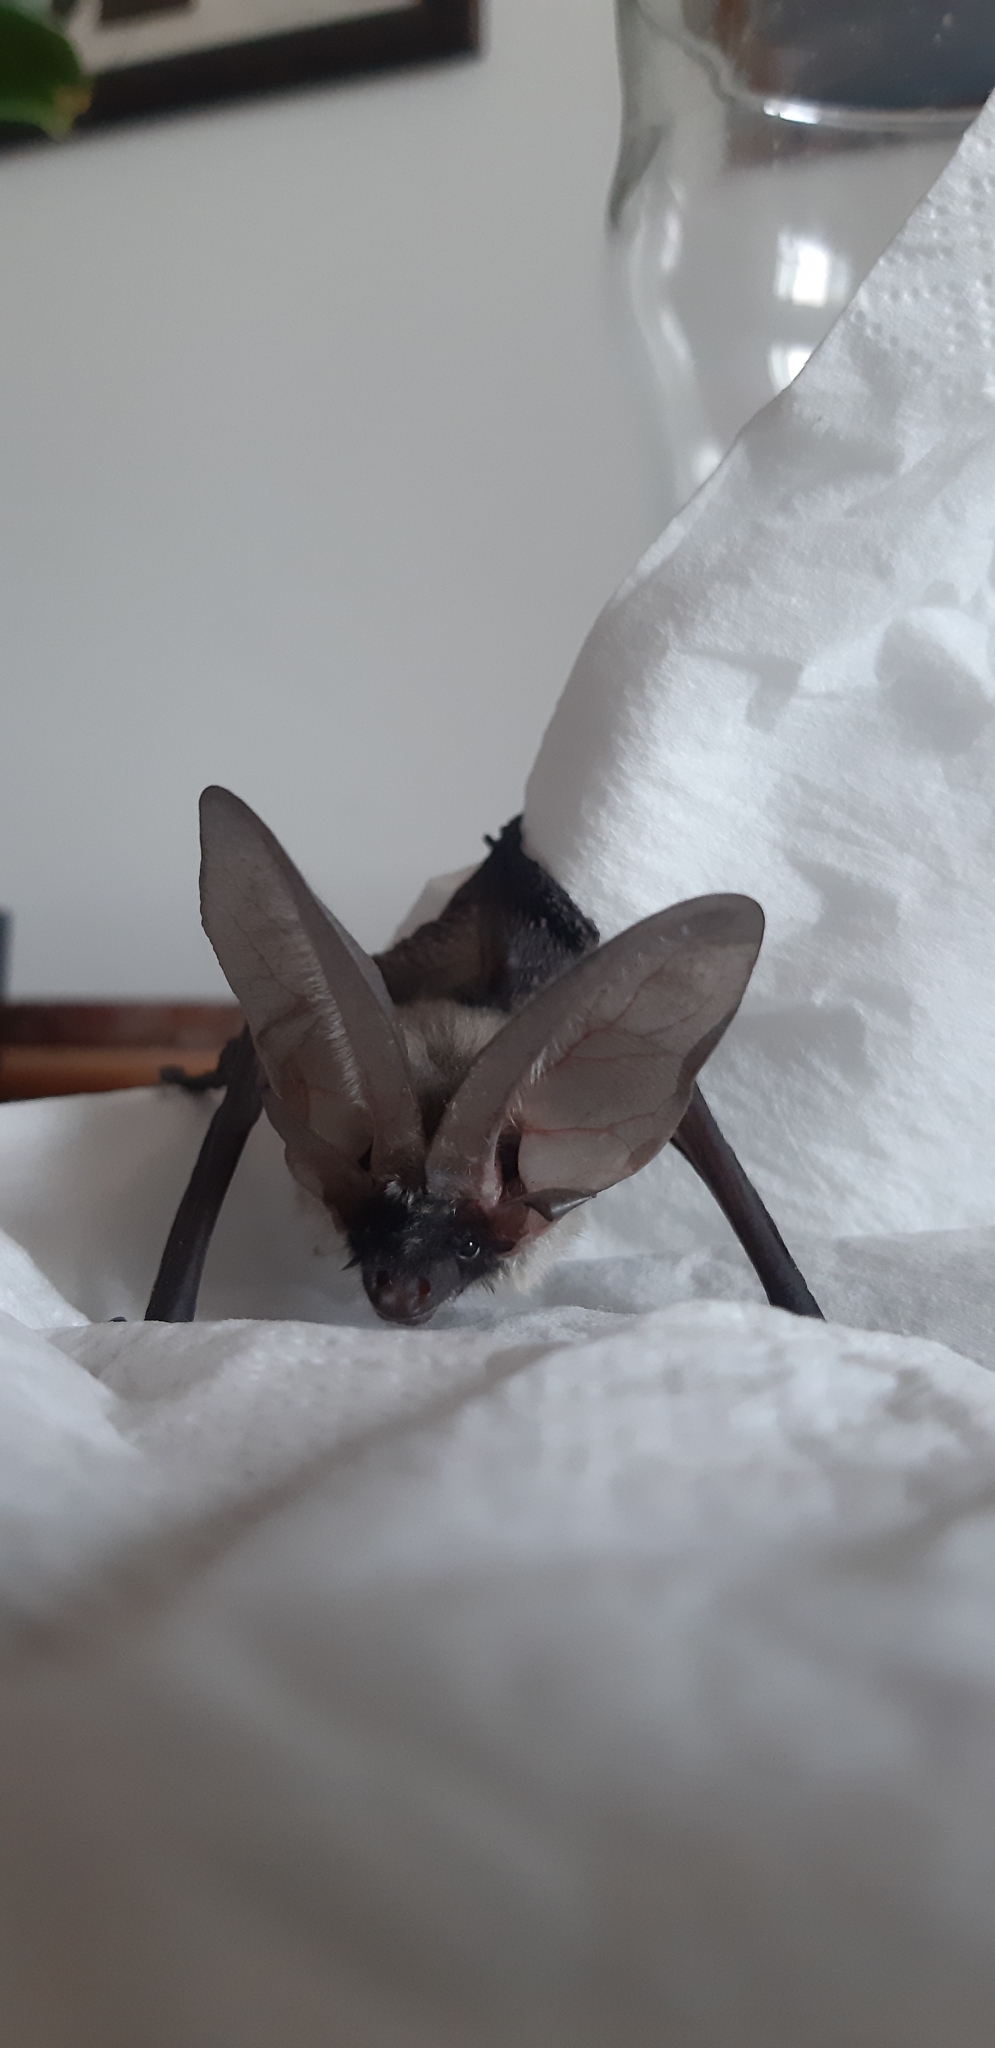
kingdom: Animalia
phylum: Chordata
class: Mammalia
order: Chiroptera
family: Vespertilionidae
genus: Plecotus
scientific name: Plecotus austriacus
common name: Grey long-eared bat
